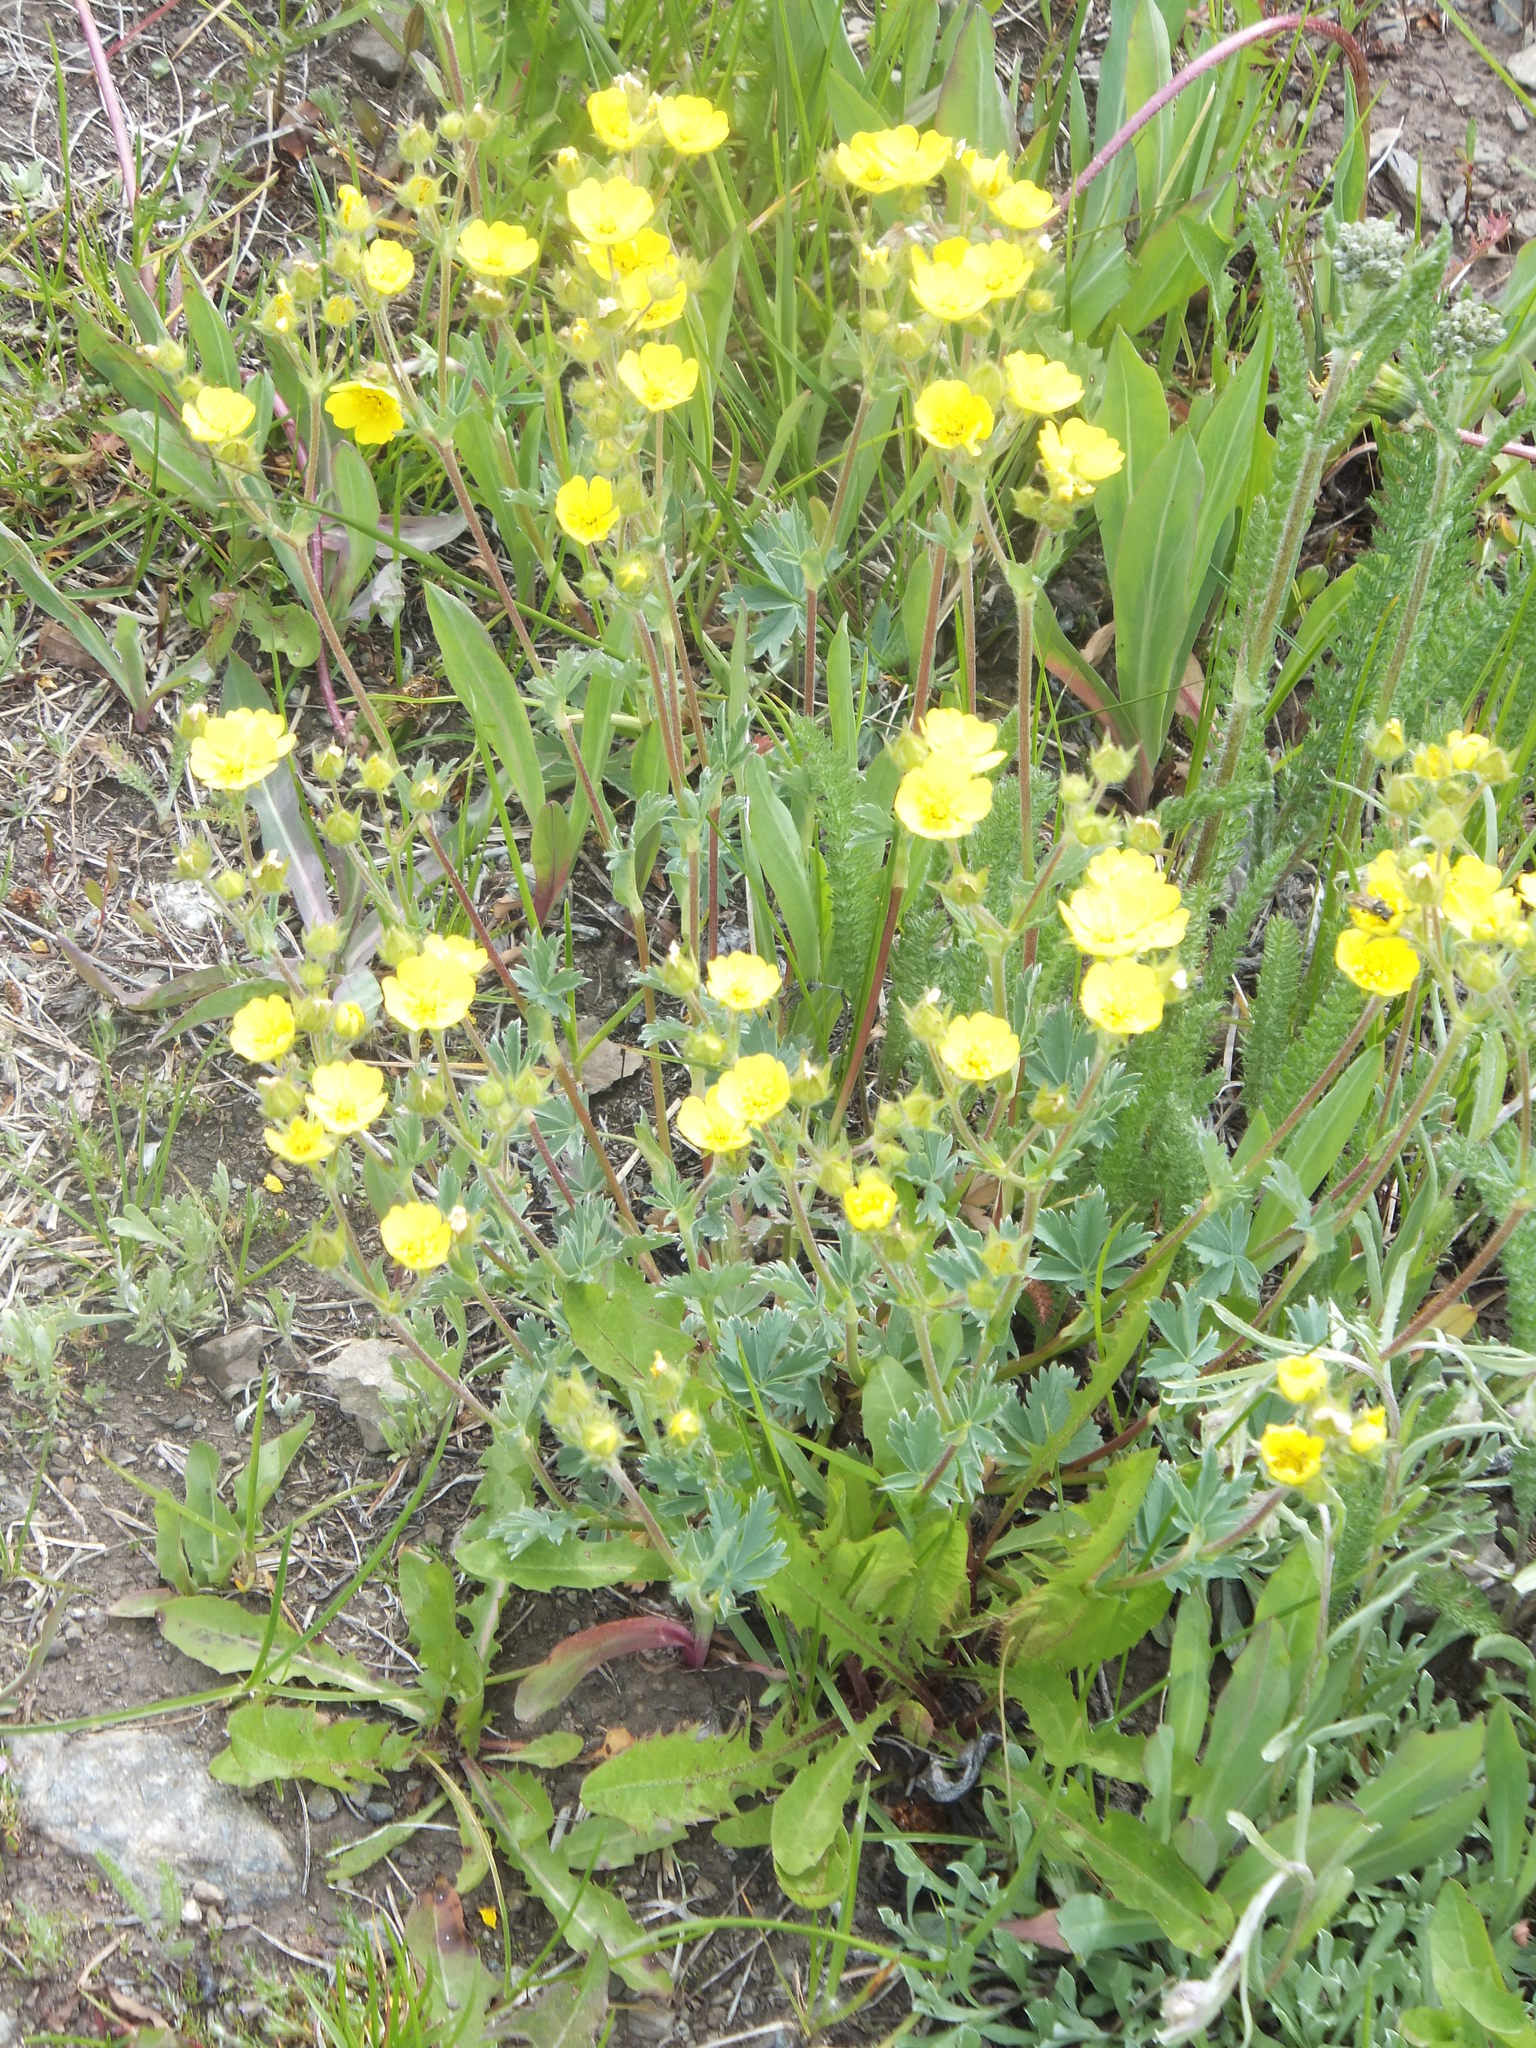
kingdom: Plantae
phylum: Tracheophyta
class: Magnoliopsida
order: Rosales
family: Rosaceae
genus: Potentilla
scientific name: Potentilla glaucophylla
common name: Blue-leaved cinquefoil
